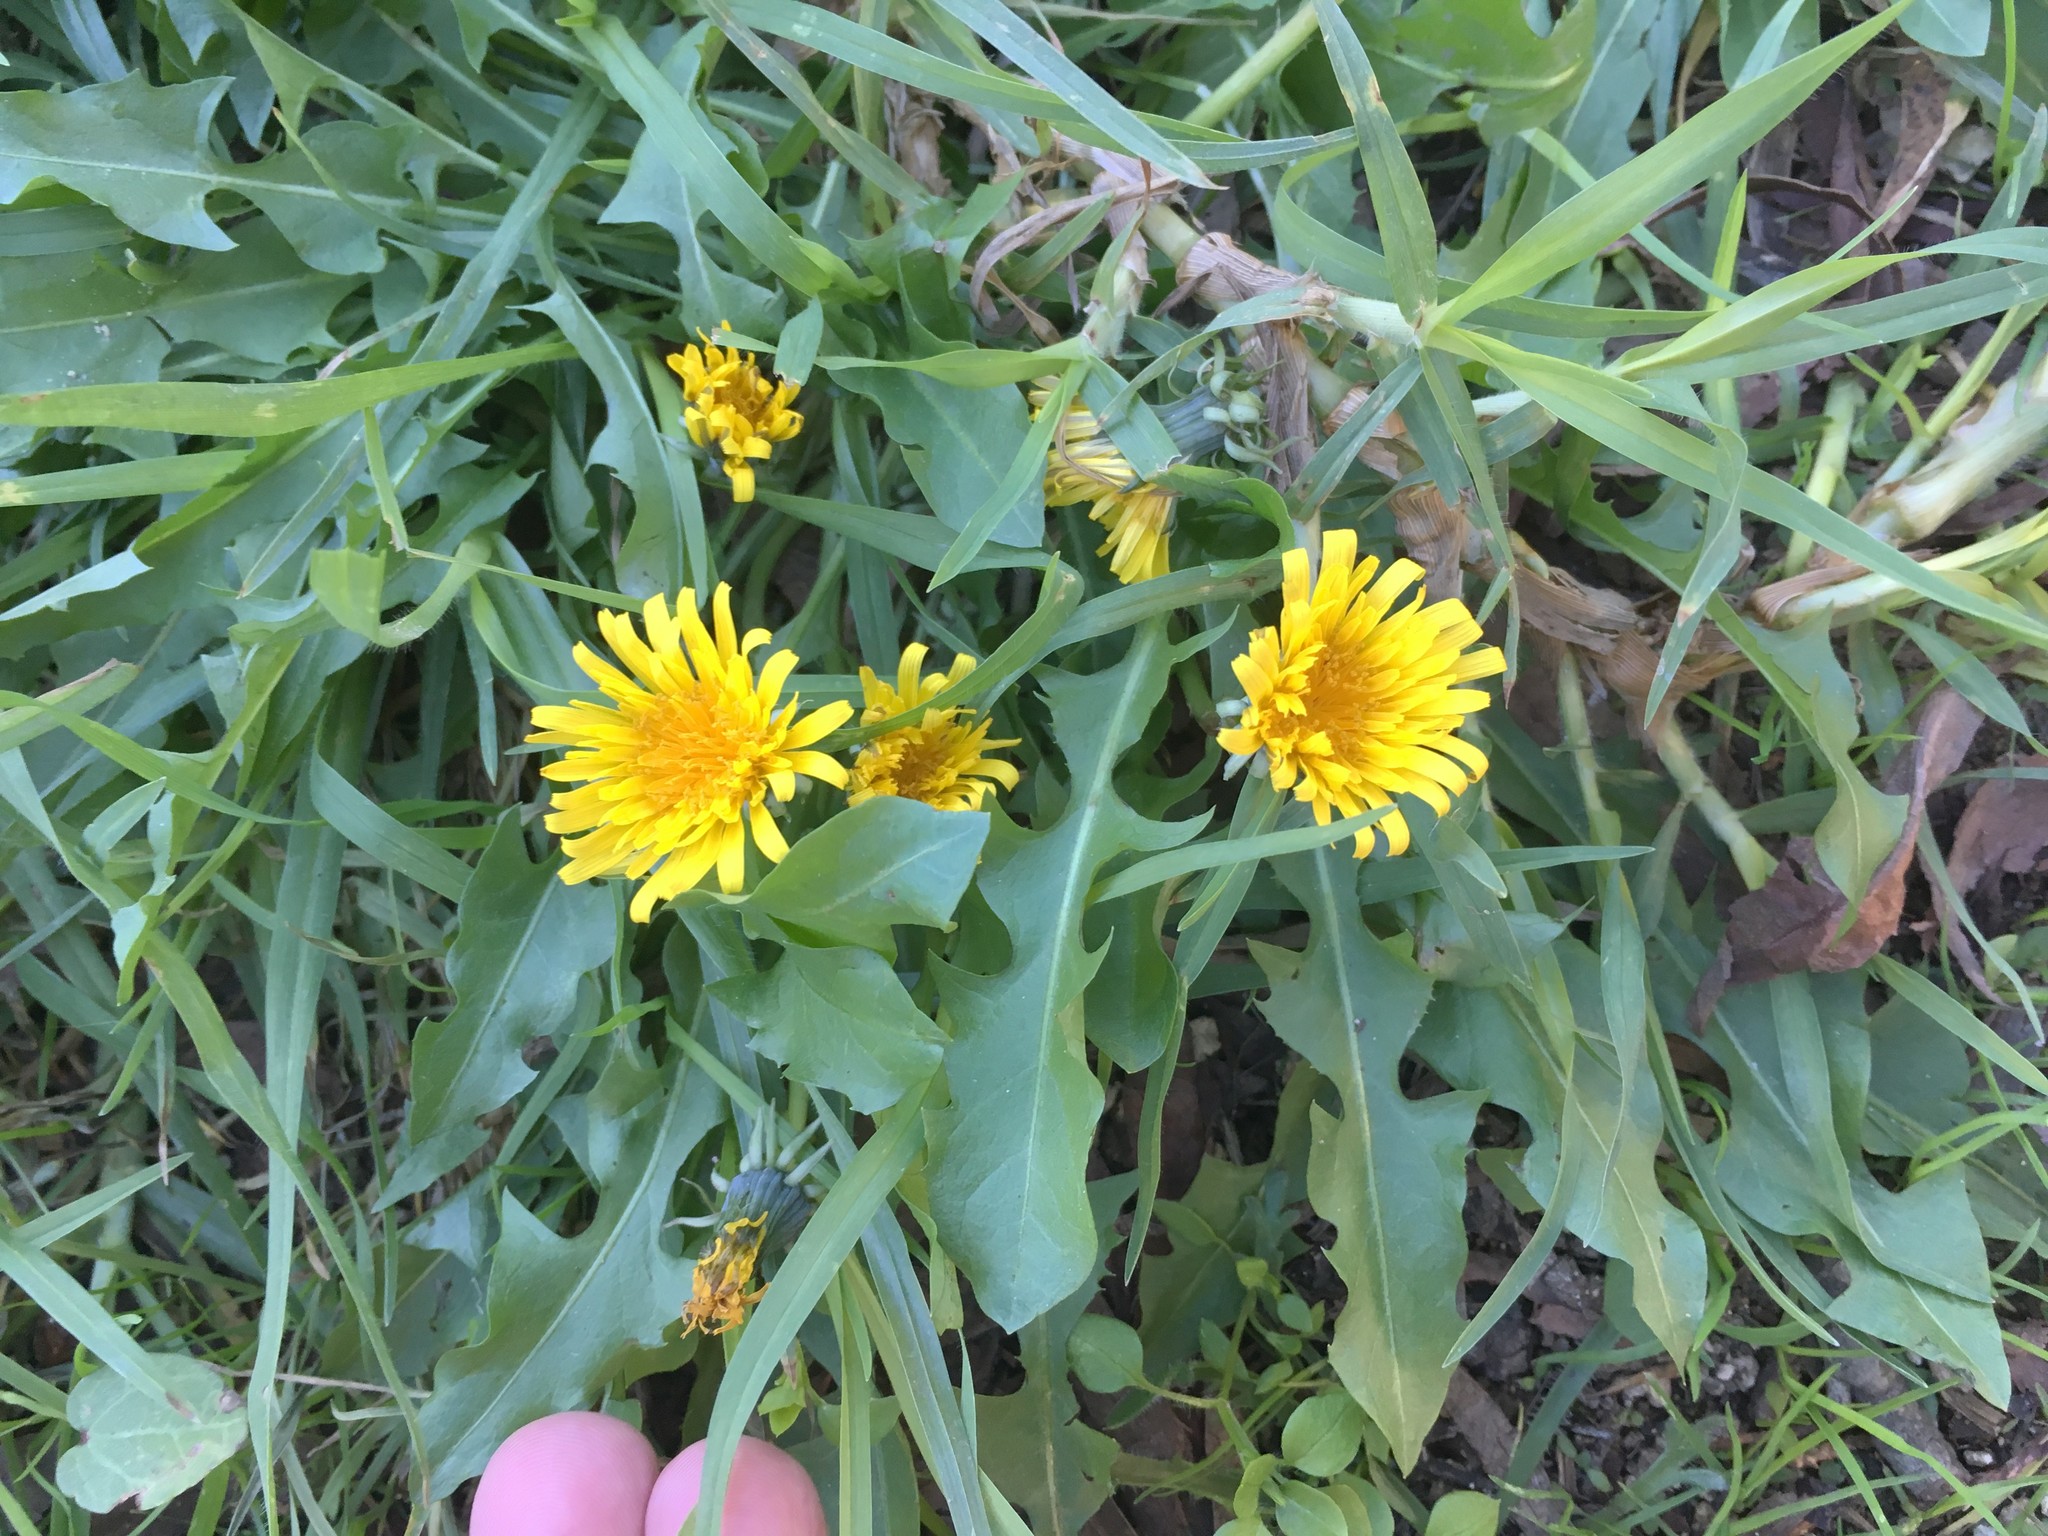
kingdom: Plantae
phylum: Tracheophyta
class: Magnoliopsida
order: Asterales
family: Asteraceae
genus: Taraxacum
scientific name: Taraxacum officinale
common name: Common dandelion
